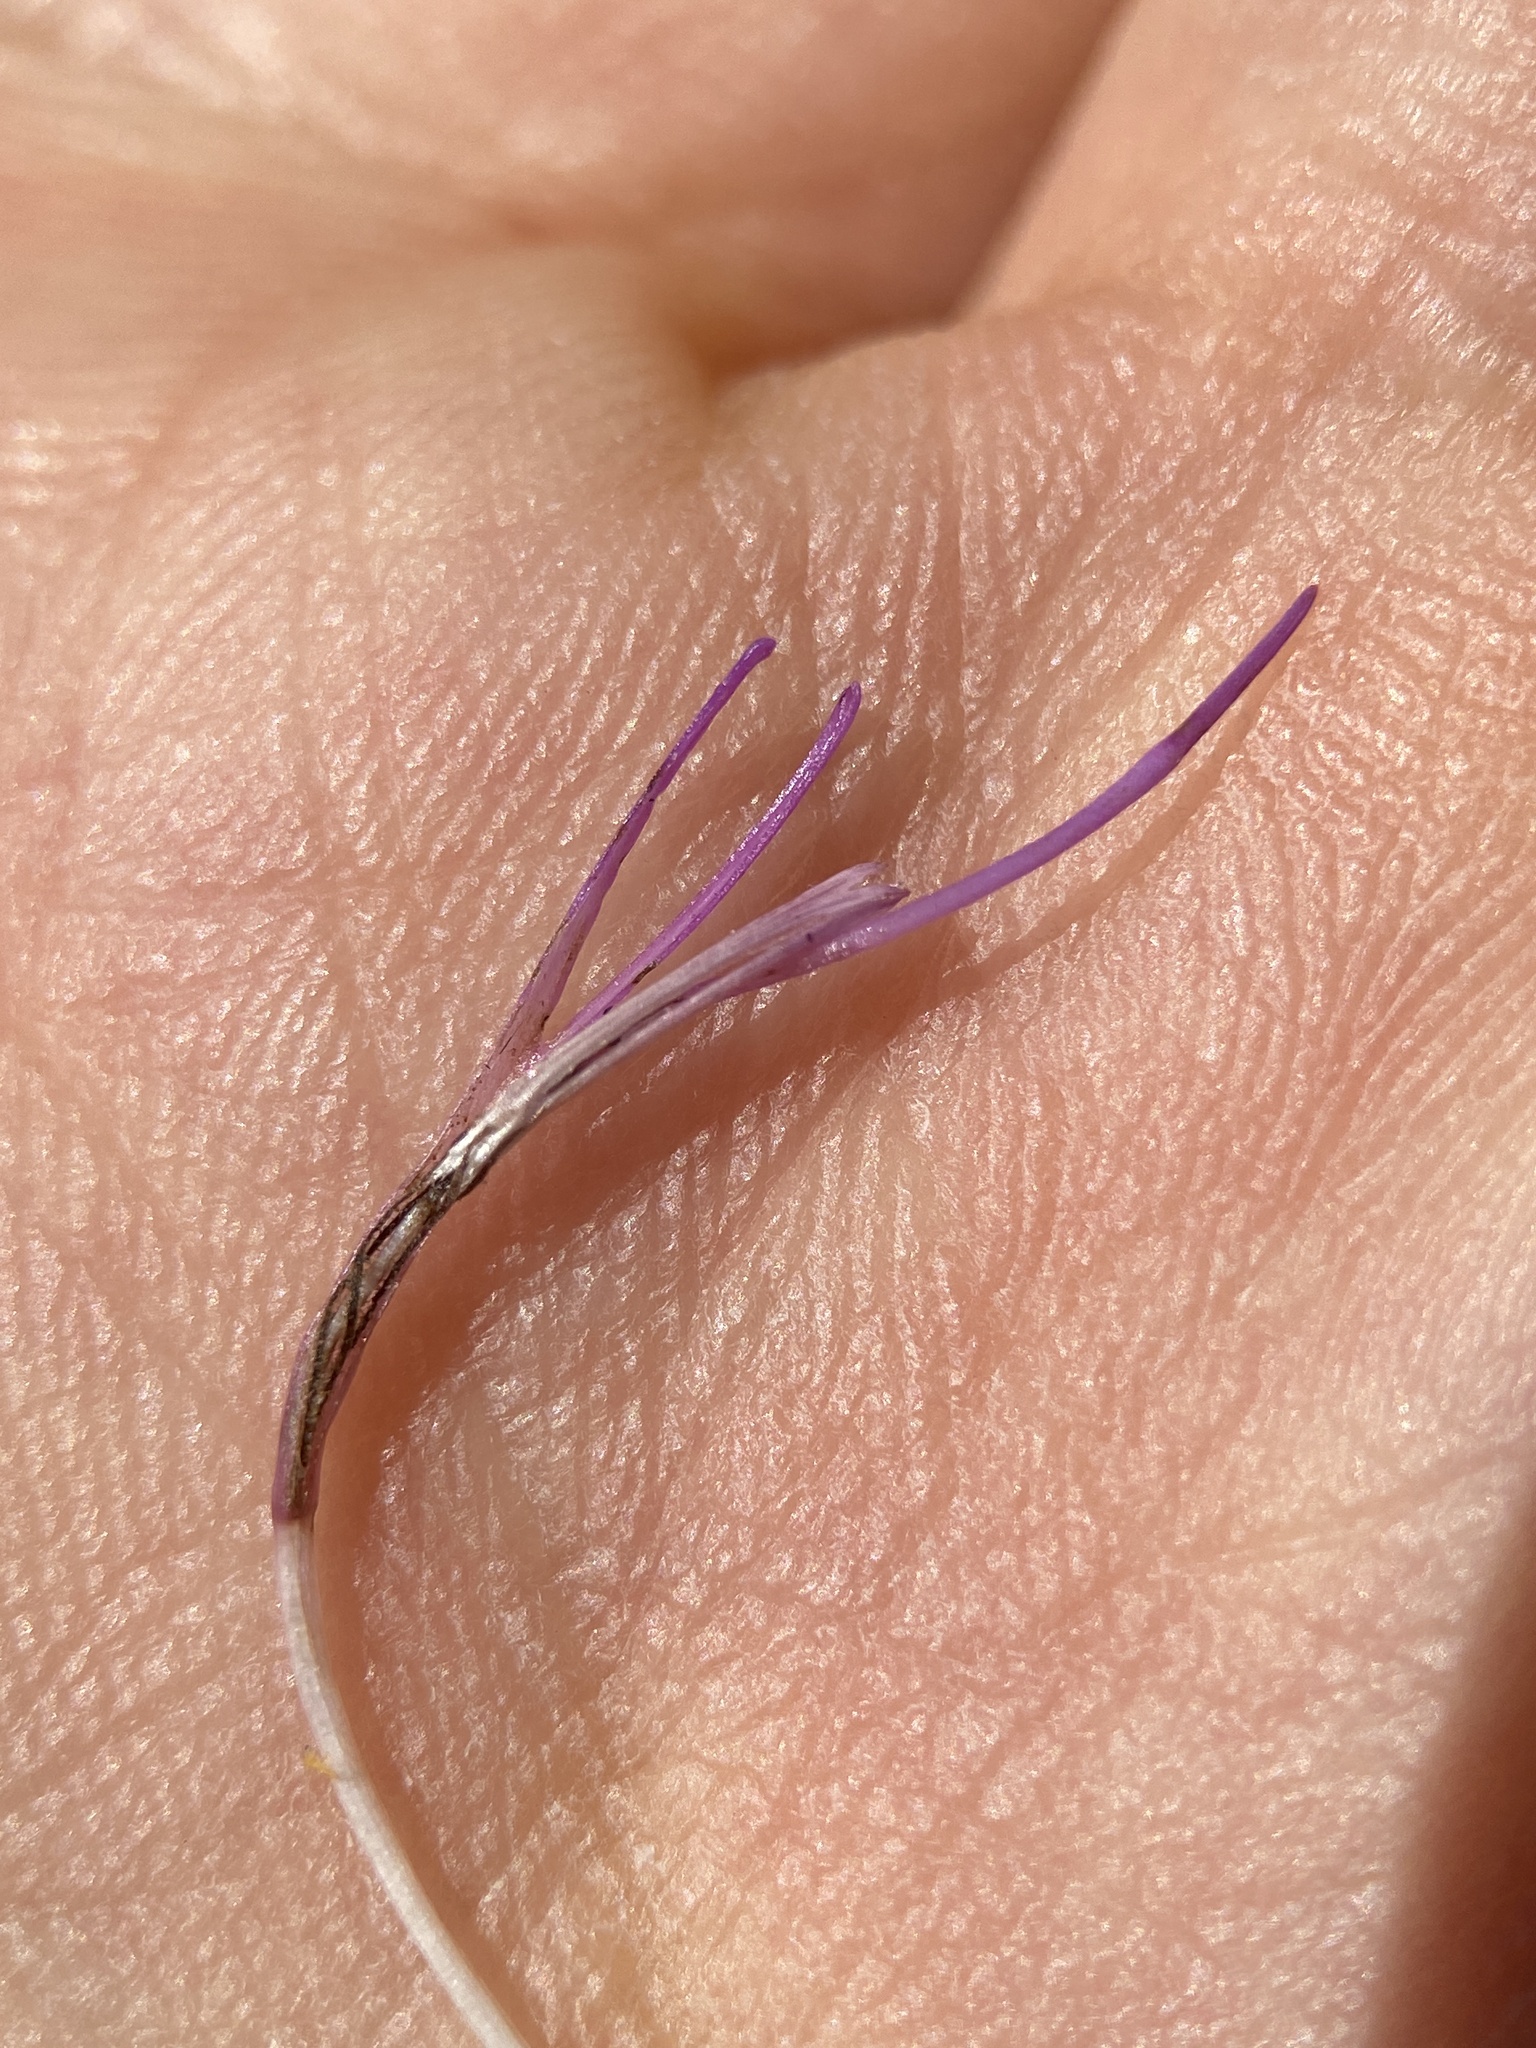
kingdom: Plantae
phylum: Tracheophyta
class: Magnoliopsida
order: Asterales
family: Asteraceae
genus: Cirsium
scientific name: Cirsium muticum
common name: Dunce-nettle
